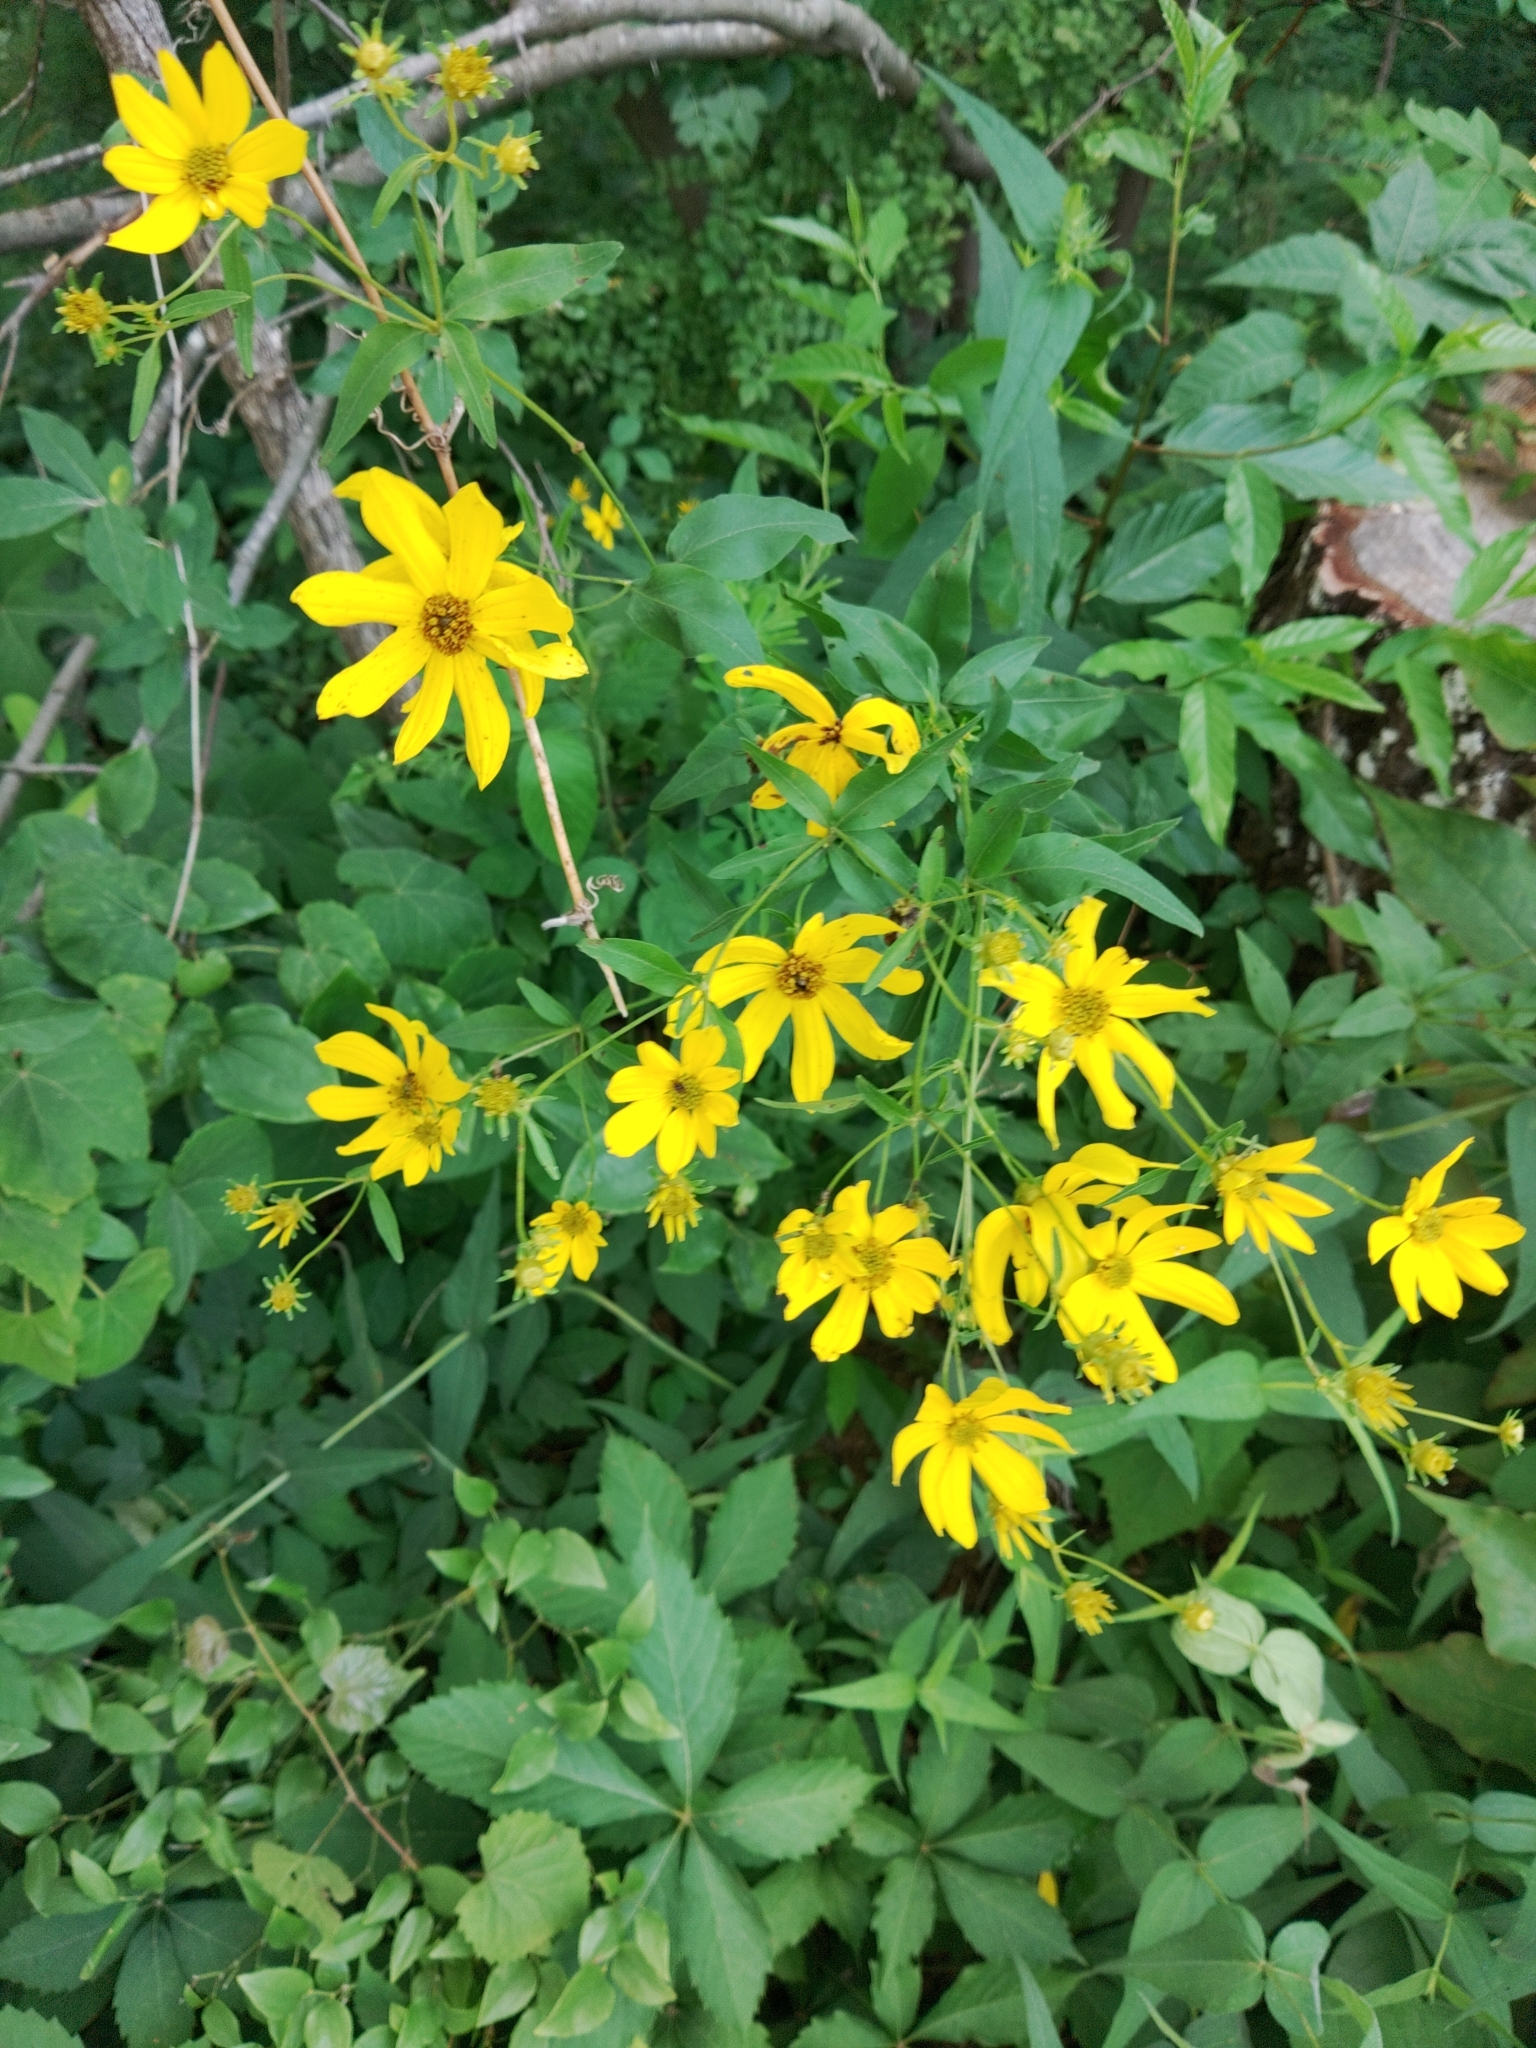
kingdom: Plantae
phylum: Tracheophyta
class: Magnoliopsida
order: Asterales
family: Asteraceae
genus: Coreopsis
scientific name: Coreopsis major
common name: Forest tickseed
